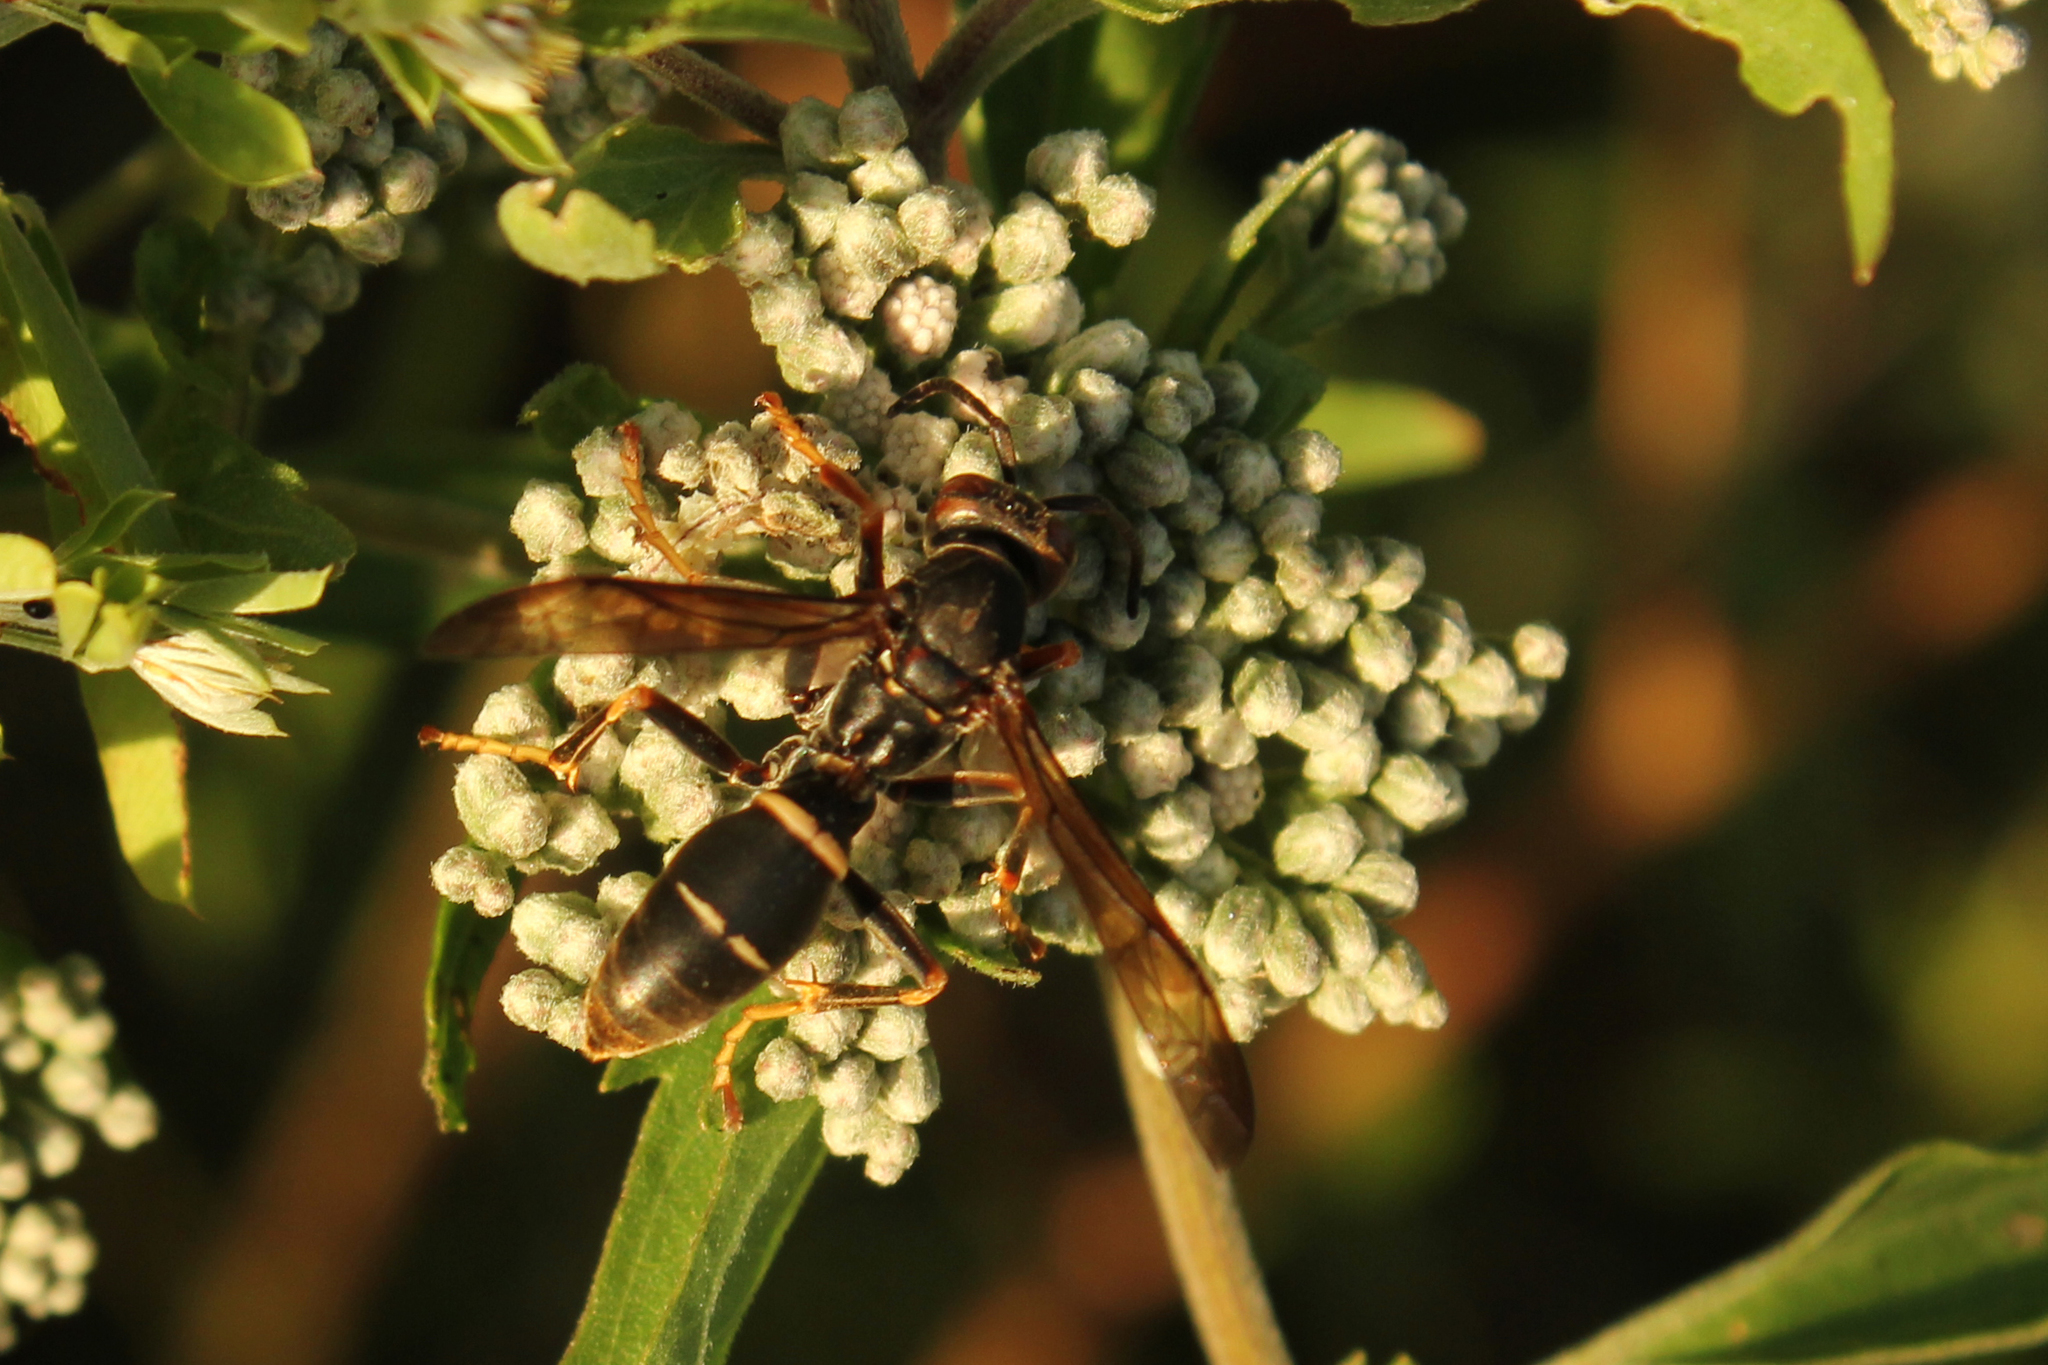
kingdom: Animalia
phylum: Arthropoda
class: Insecta
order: Hymenoptera
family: Eumenidae
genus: Polistes
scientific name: Polistes fuscatus
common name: Dark paper wasp
